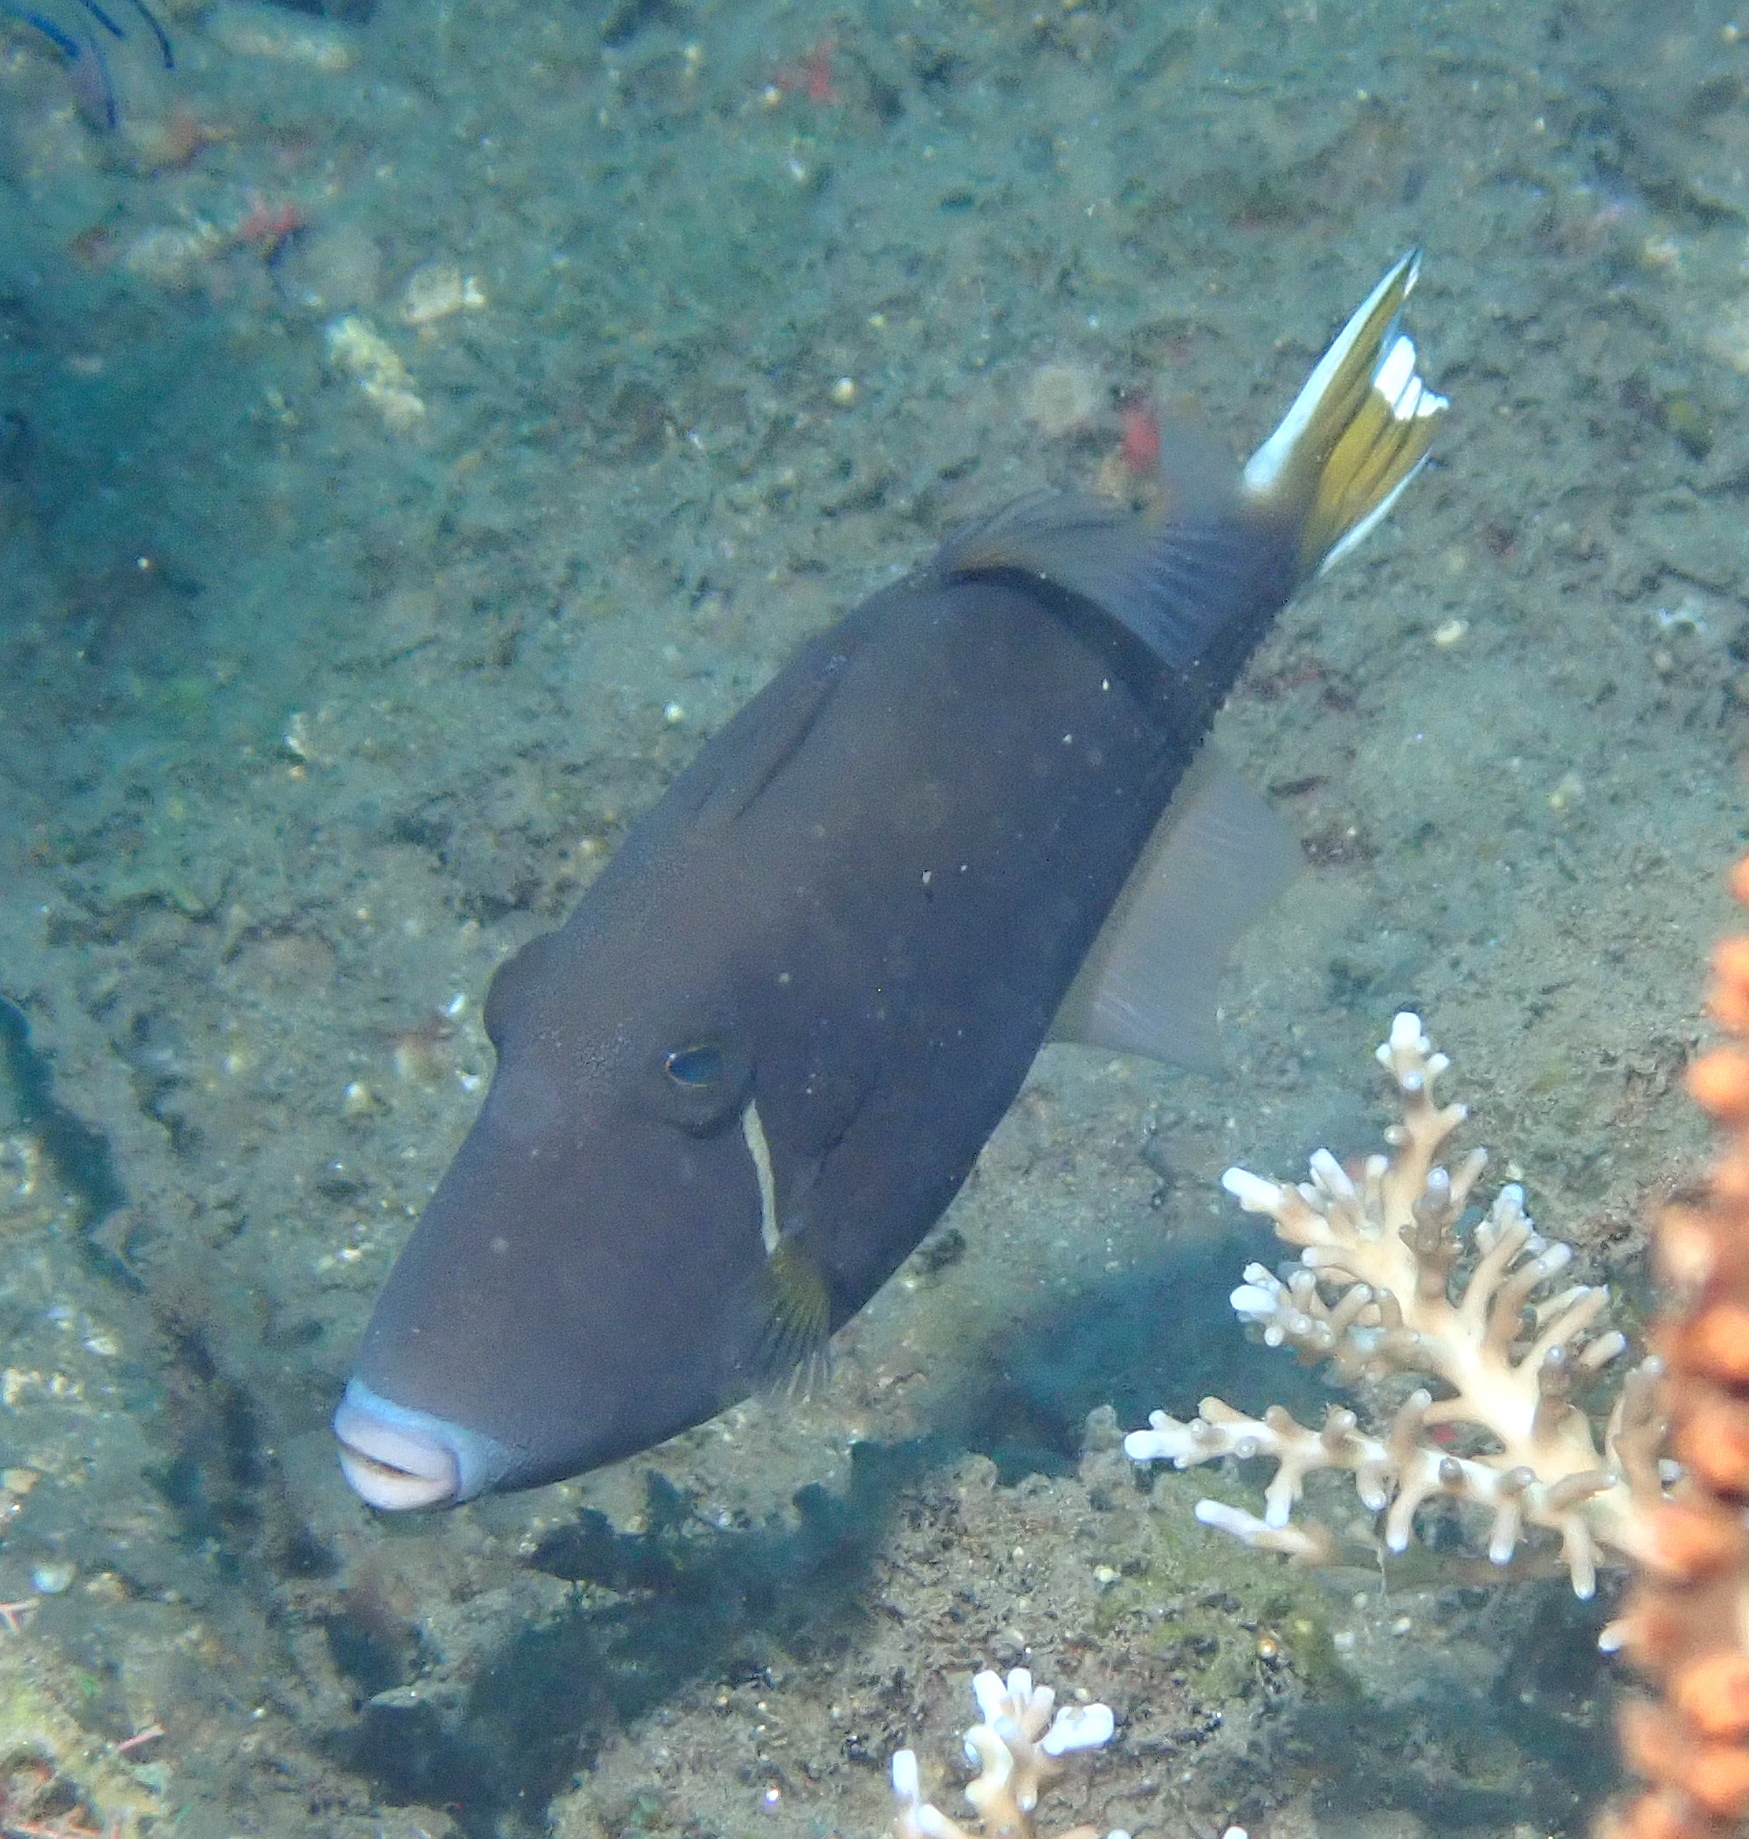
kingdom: Animalia
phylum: Chordata
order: Tetraodontiformes
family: Balistidae
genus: Sufflamen
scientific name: Sufflamen chrysopterum
